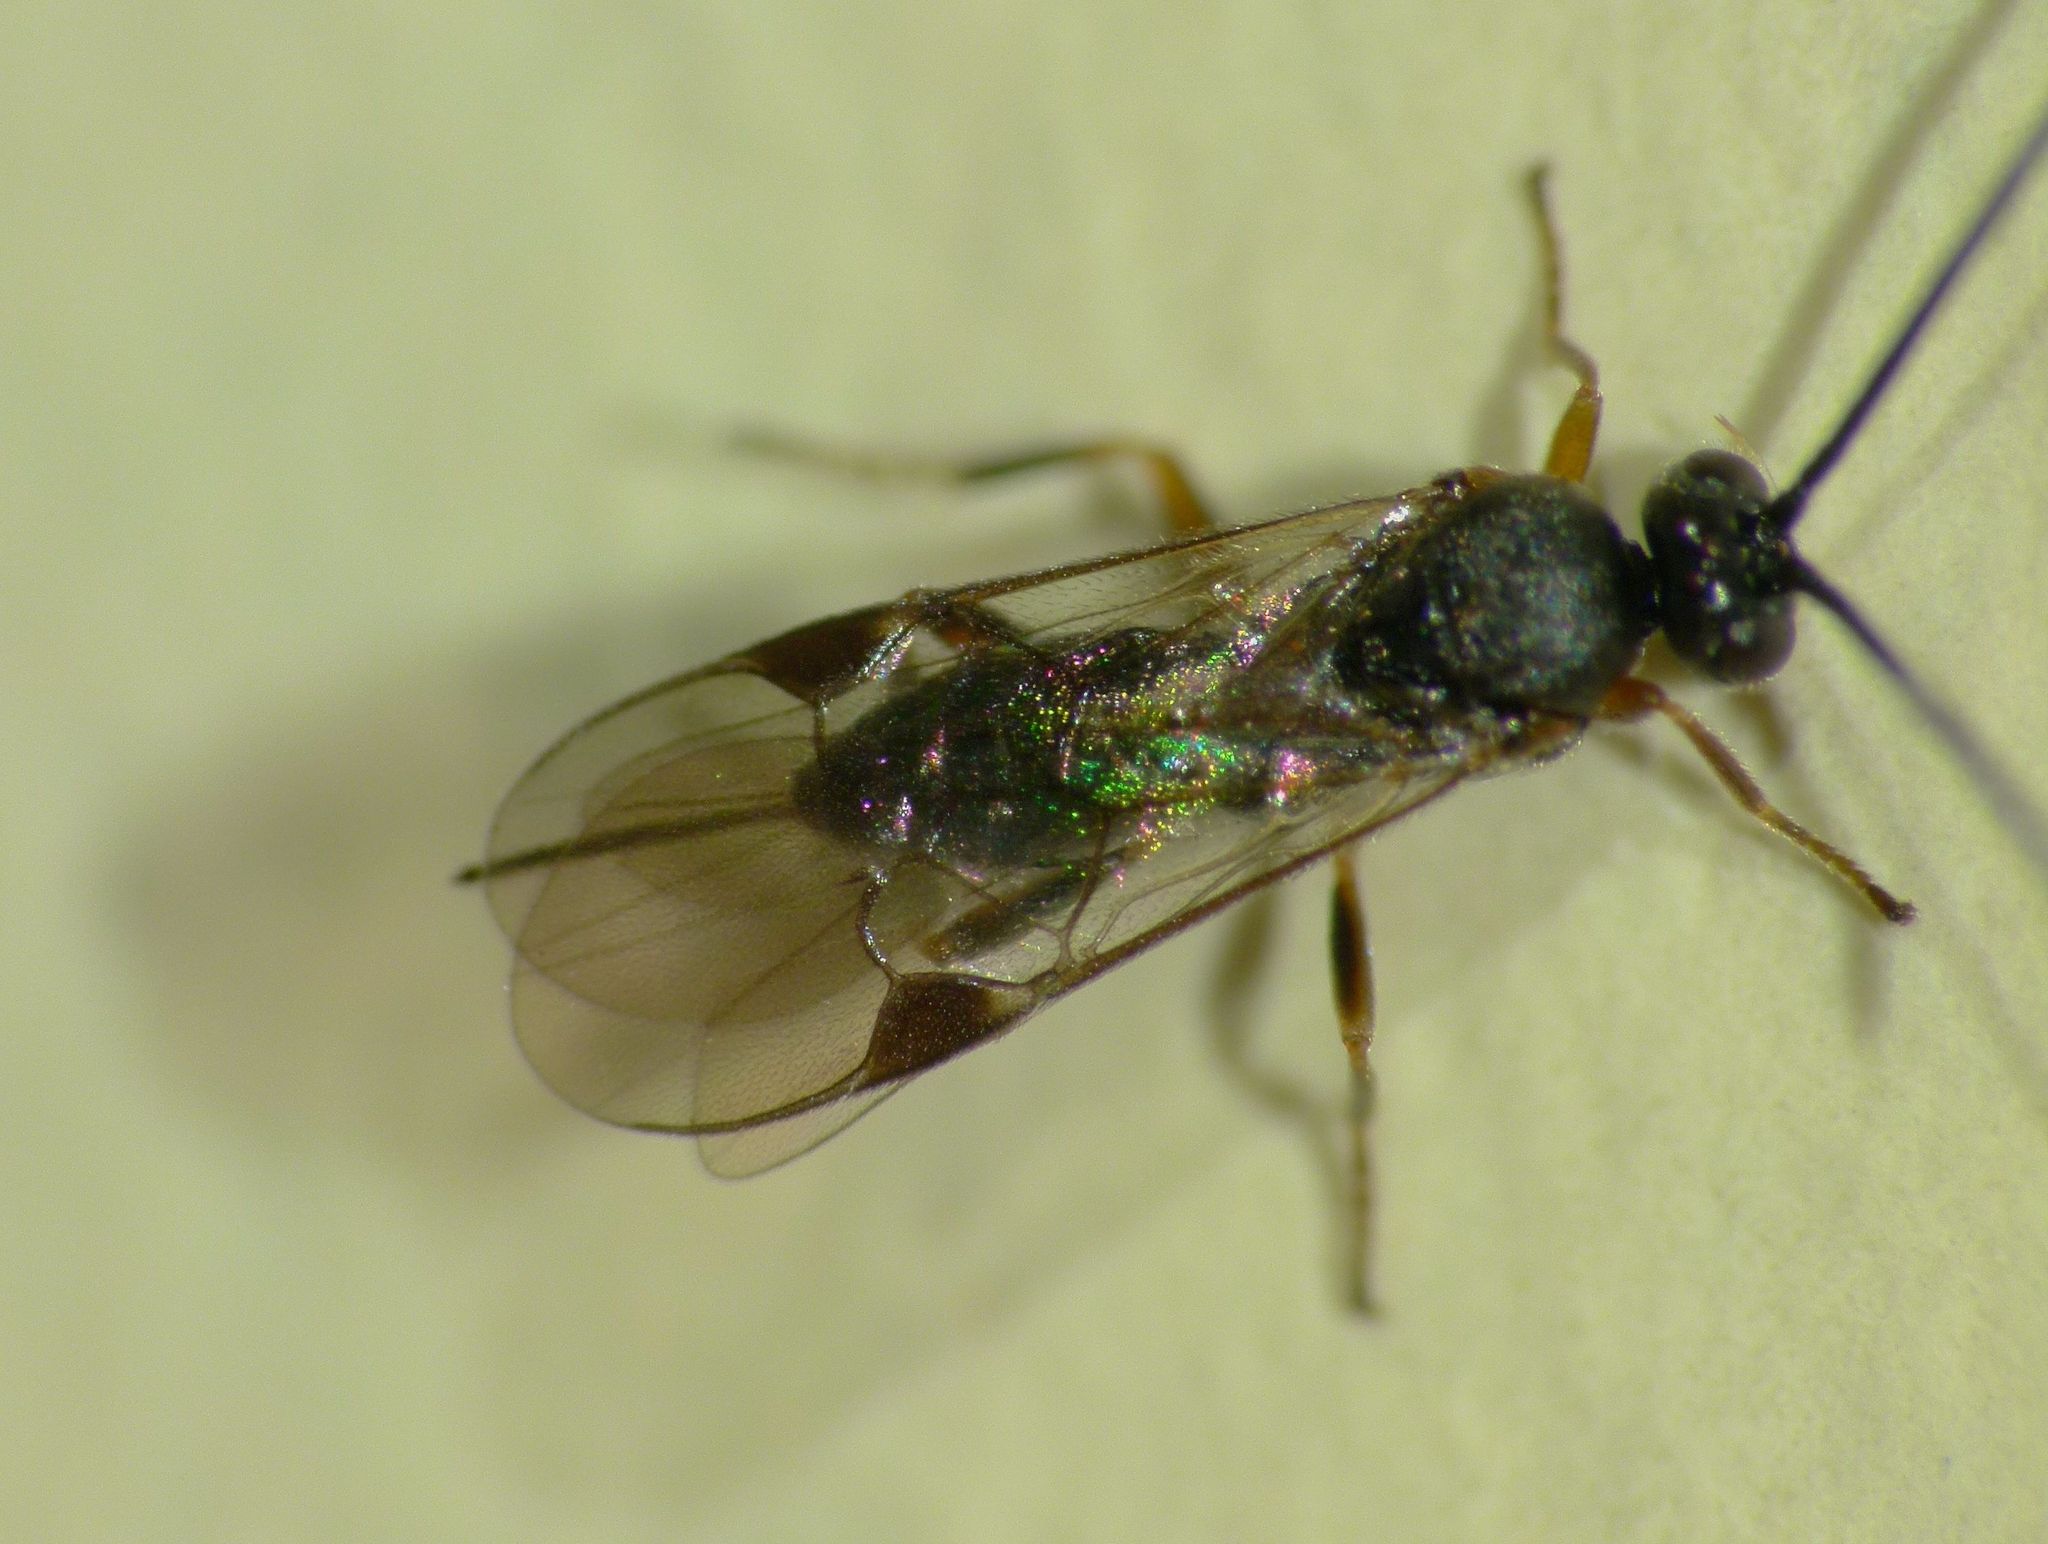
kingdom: Animalia
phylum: Arthropoda
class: Insecta
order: Hymenoptera
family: Braconidae
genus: Dolichogenidea
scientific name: Dolichogenidea
